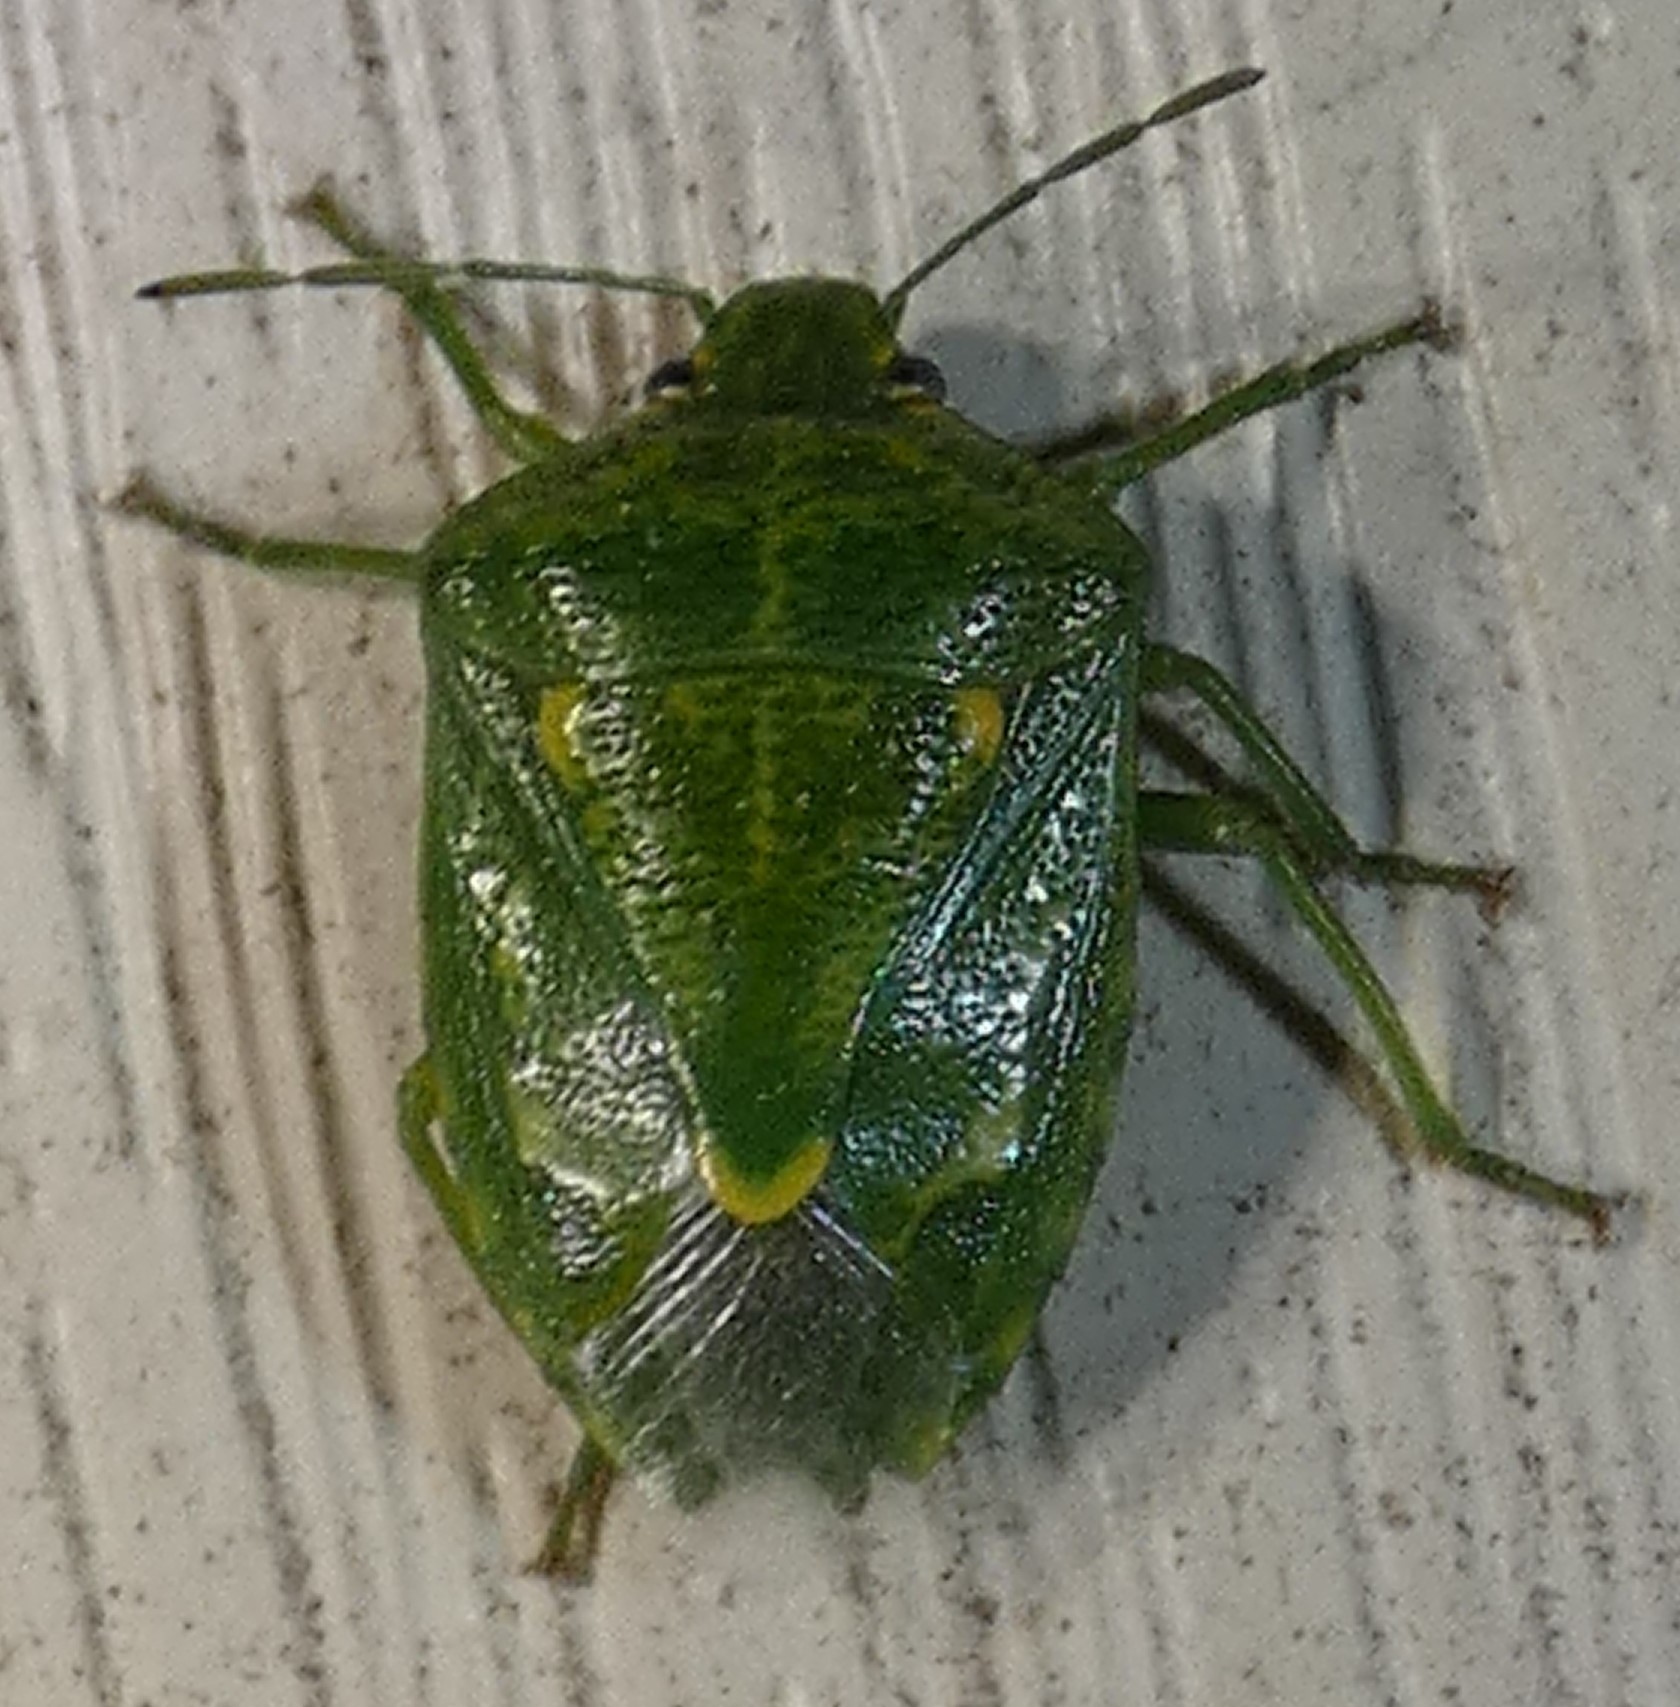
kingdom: Animalia
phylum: Arthropoda
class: Insecta
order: Hemiptera
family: Pentatomidae
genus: Banasa
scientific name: Banasa euchlora
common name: Cedar berry bug
